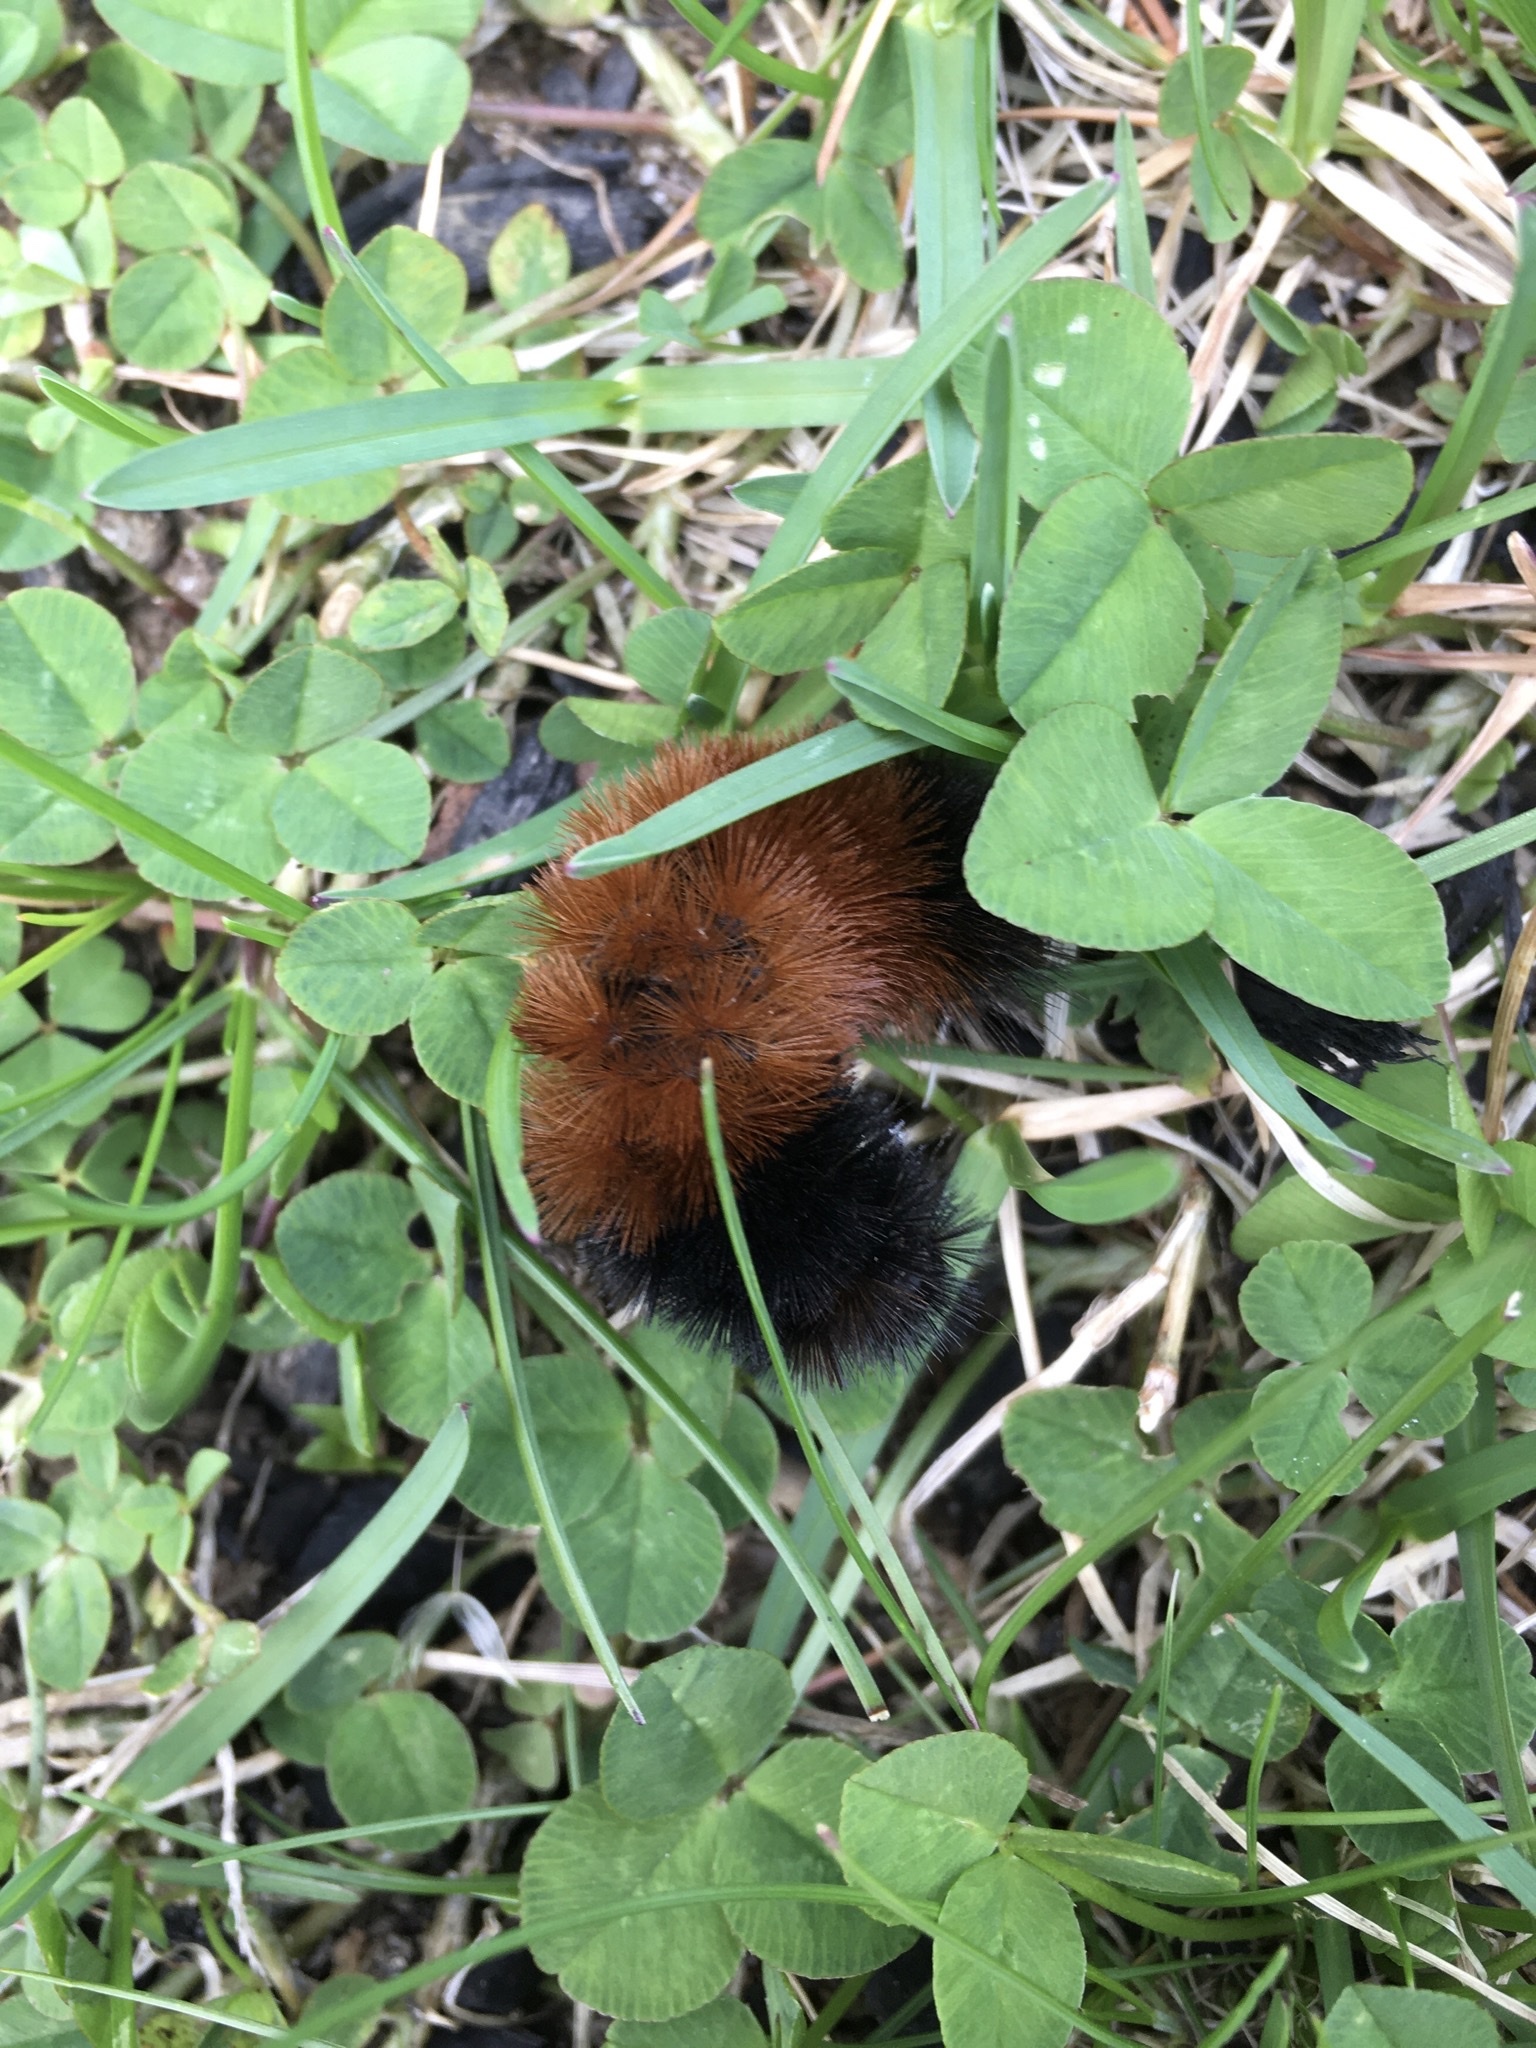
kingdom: Animalia
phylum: Arthropoda
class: Insecta
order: Lepidoptera
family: Erebidae
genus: Pyrrharctia
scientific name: Pyrrharctia isabella
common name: Isabella tiger moth
